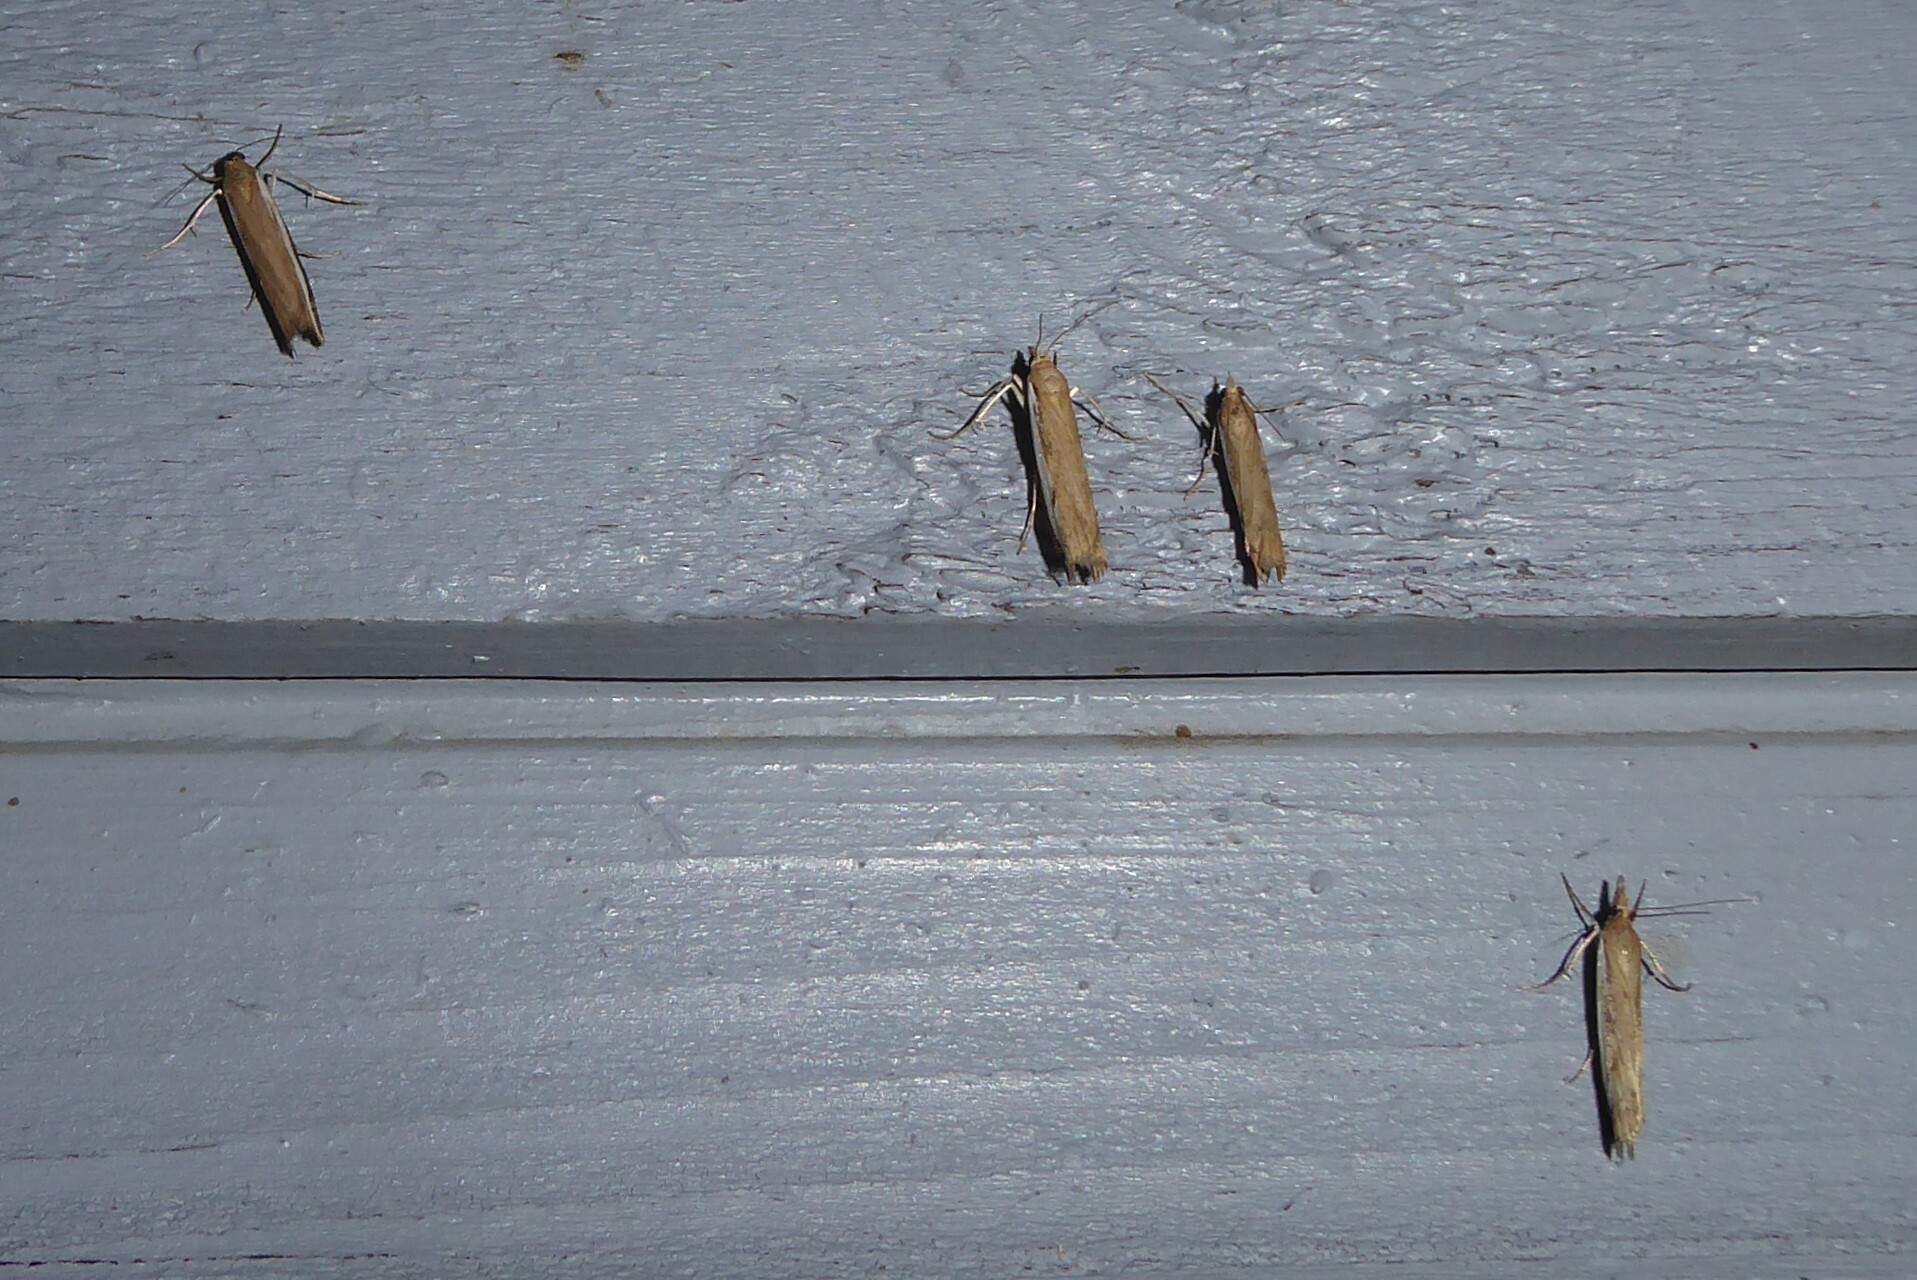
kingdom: Animalia
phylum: Arthropoda
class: Insecta
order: Lepidoptera
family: Crambidae
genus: Orocrambus
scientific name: Orocrambus flexuosellus
